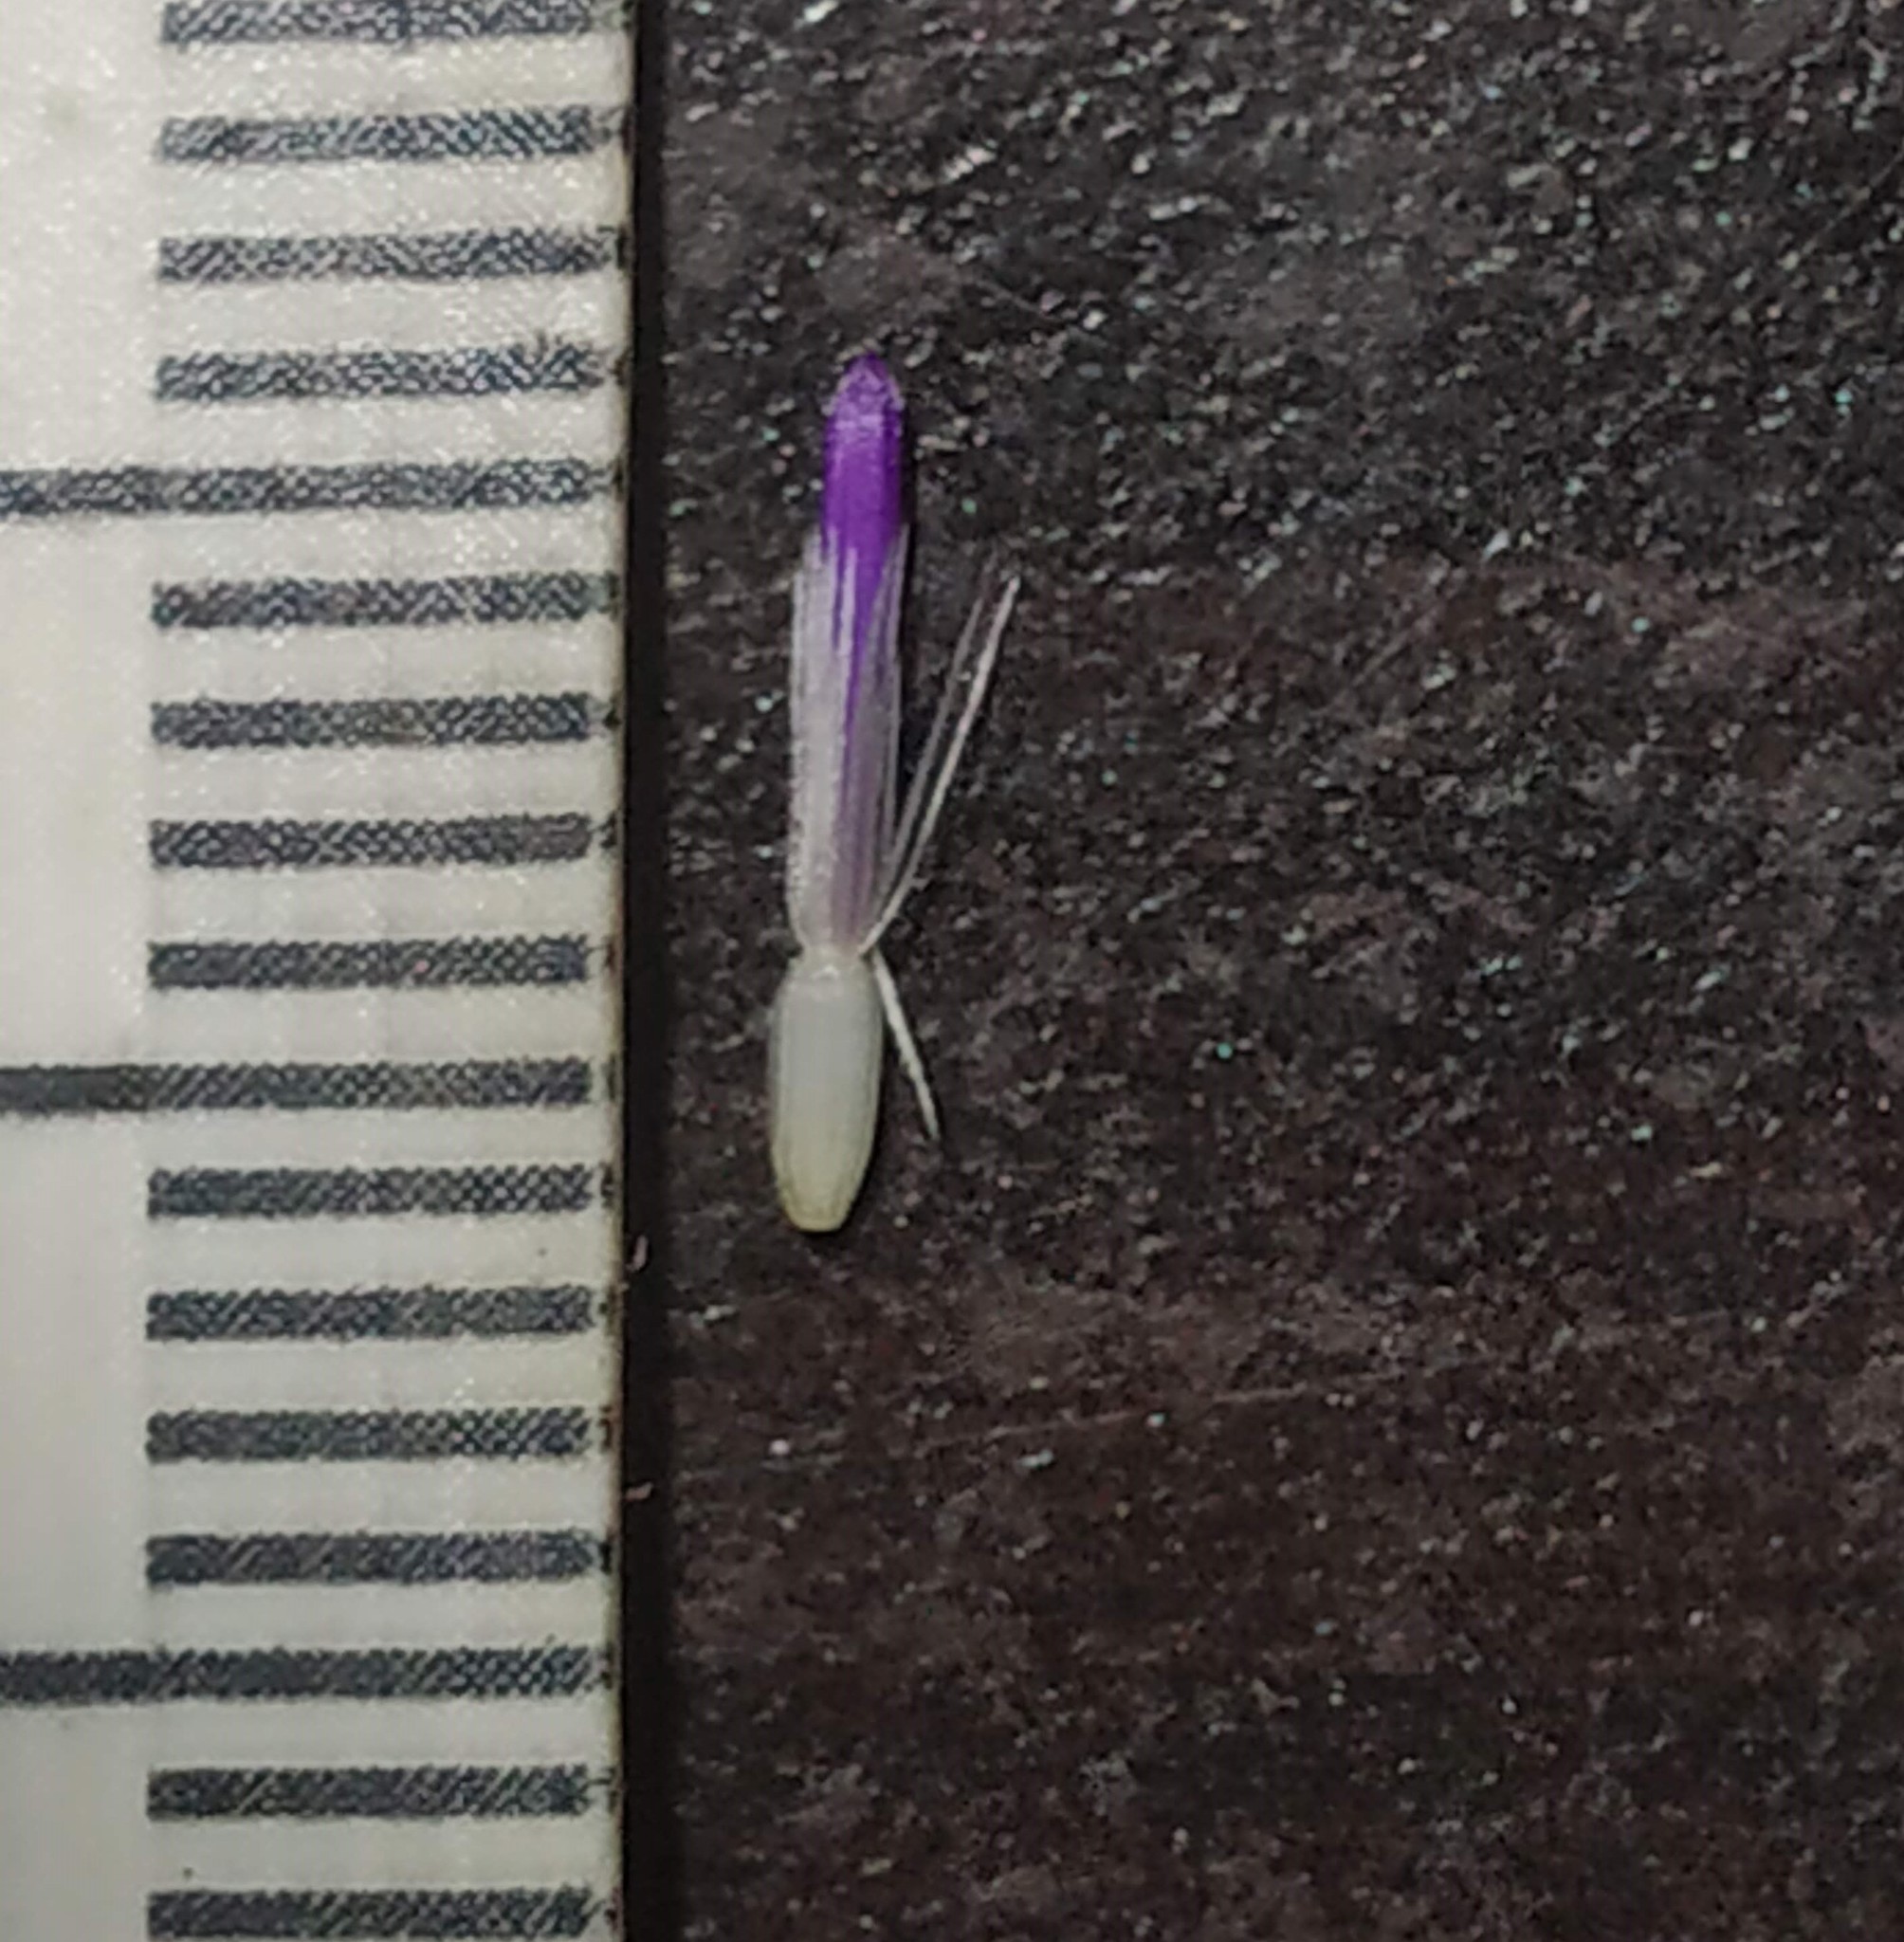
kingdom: Plantae
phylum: Tracheophyta
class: Magnoliopsida
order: Asterales
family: Asteraceae
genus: Phyllocephalum
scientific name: Phyllocephalum scabridum
